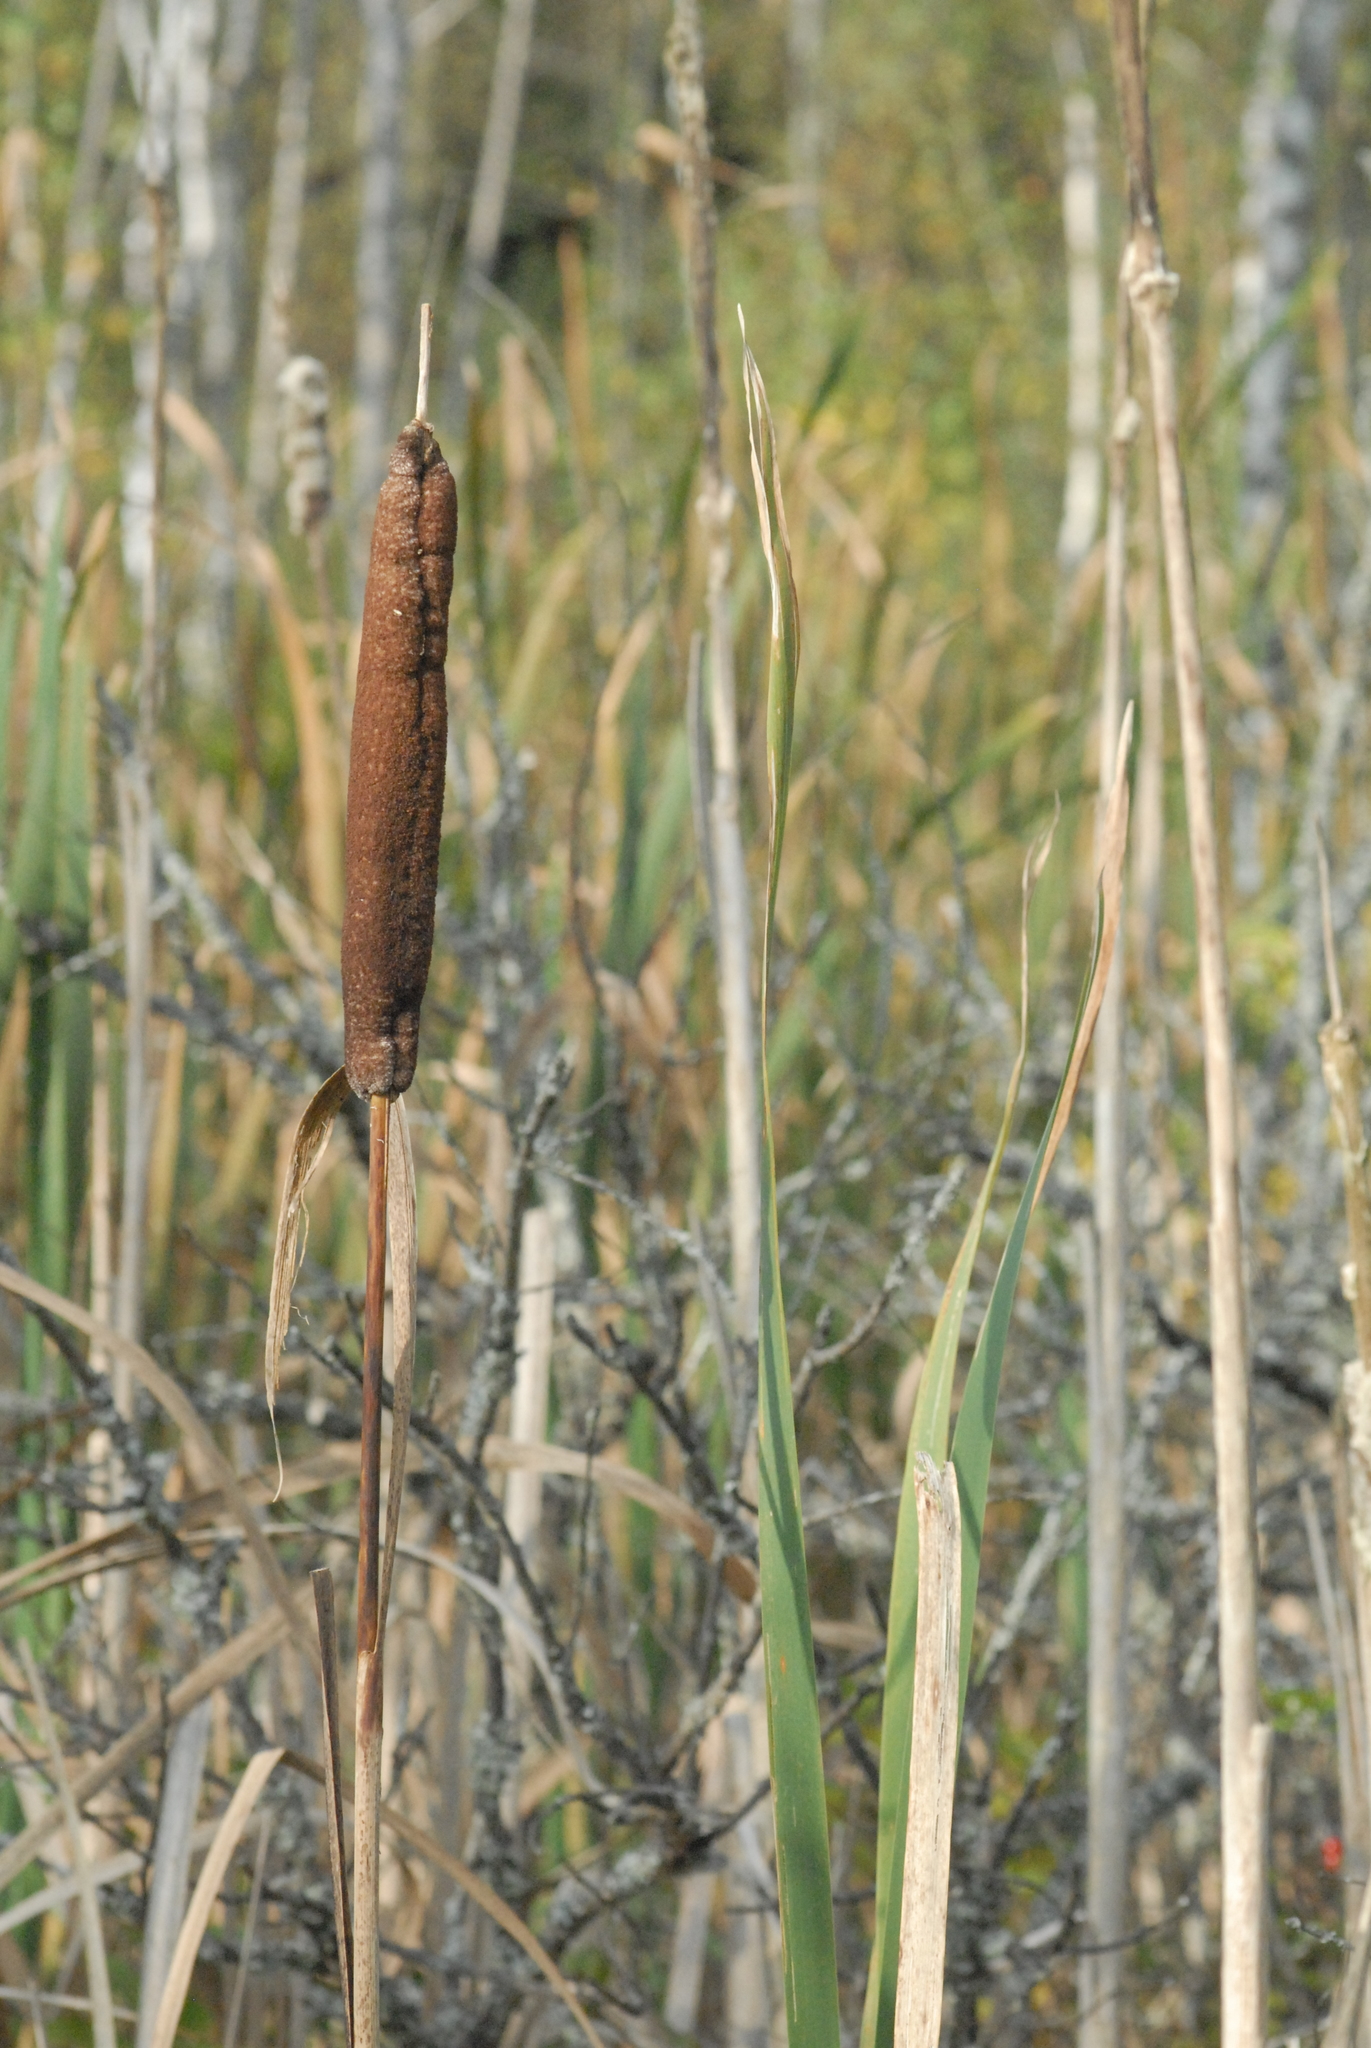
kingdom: Plantae
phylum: Tracheophyta
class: Liliopsida
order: Poales
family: Typhaceae
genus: Typha
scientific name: Typha latifolia
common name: Broadleaf cattail
